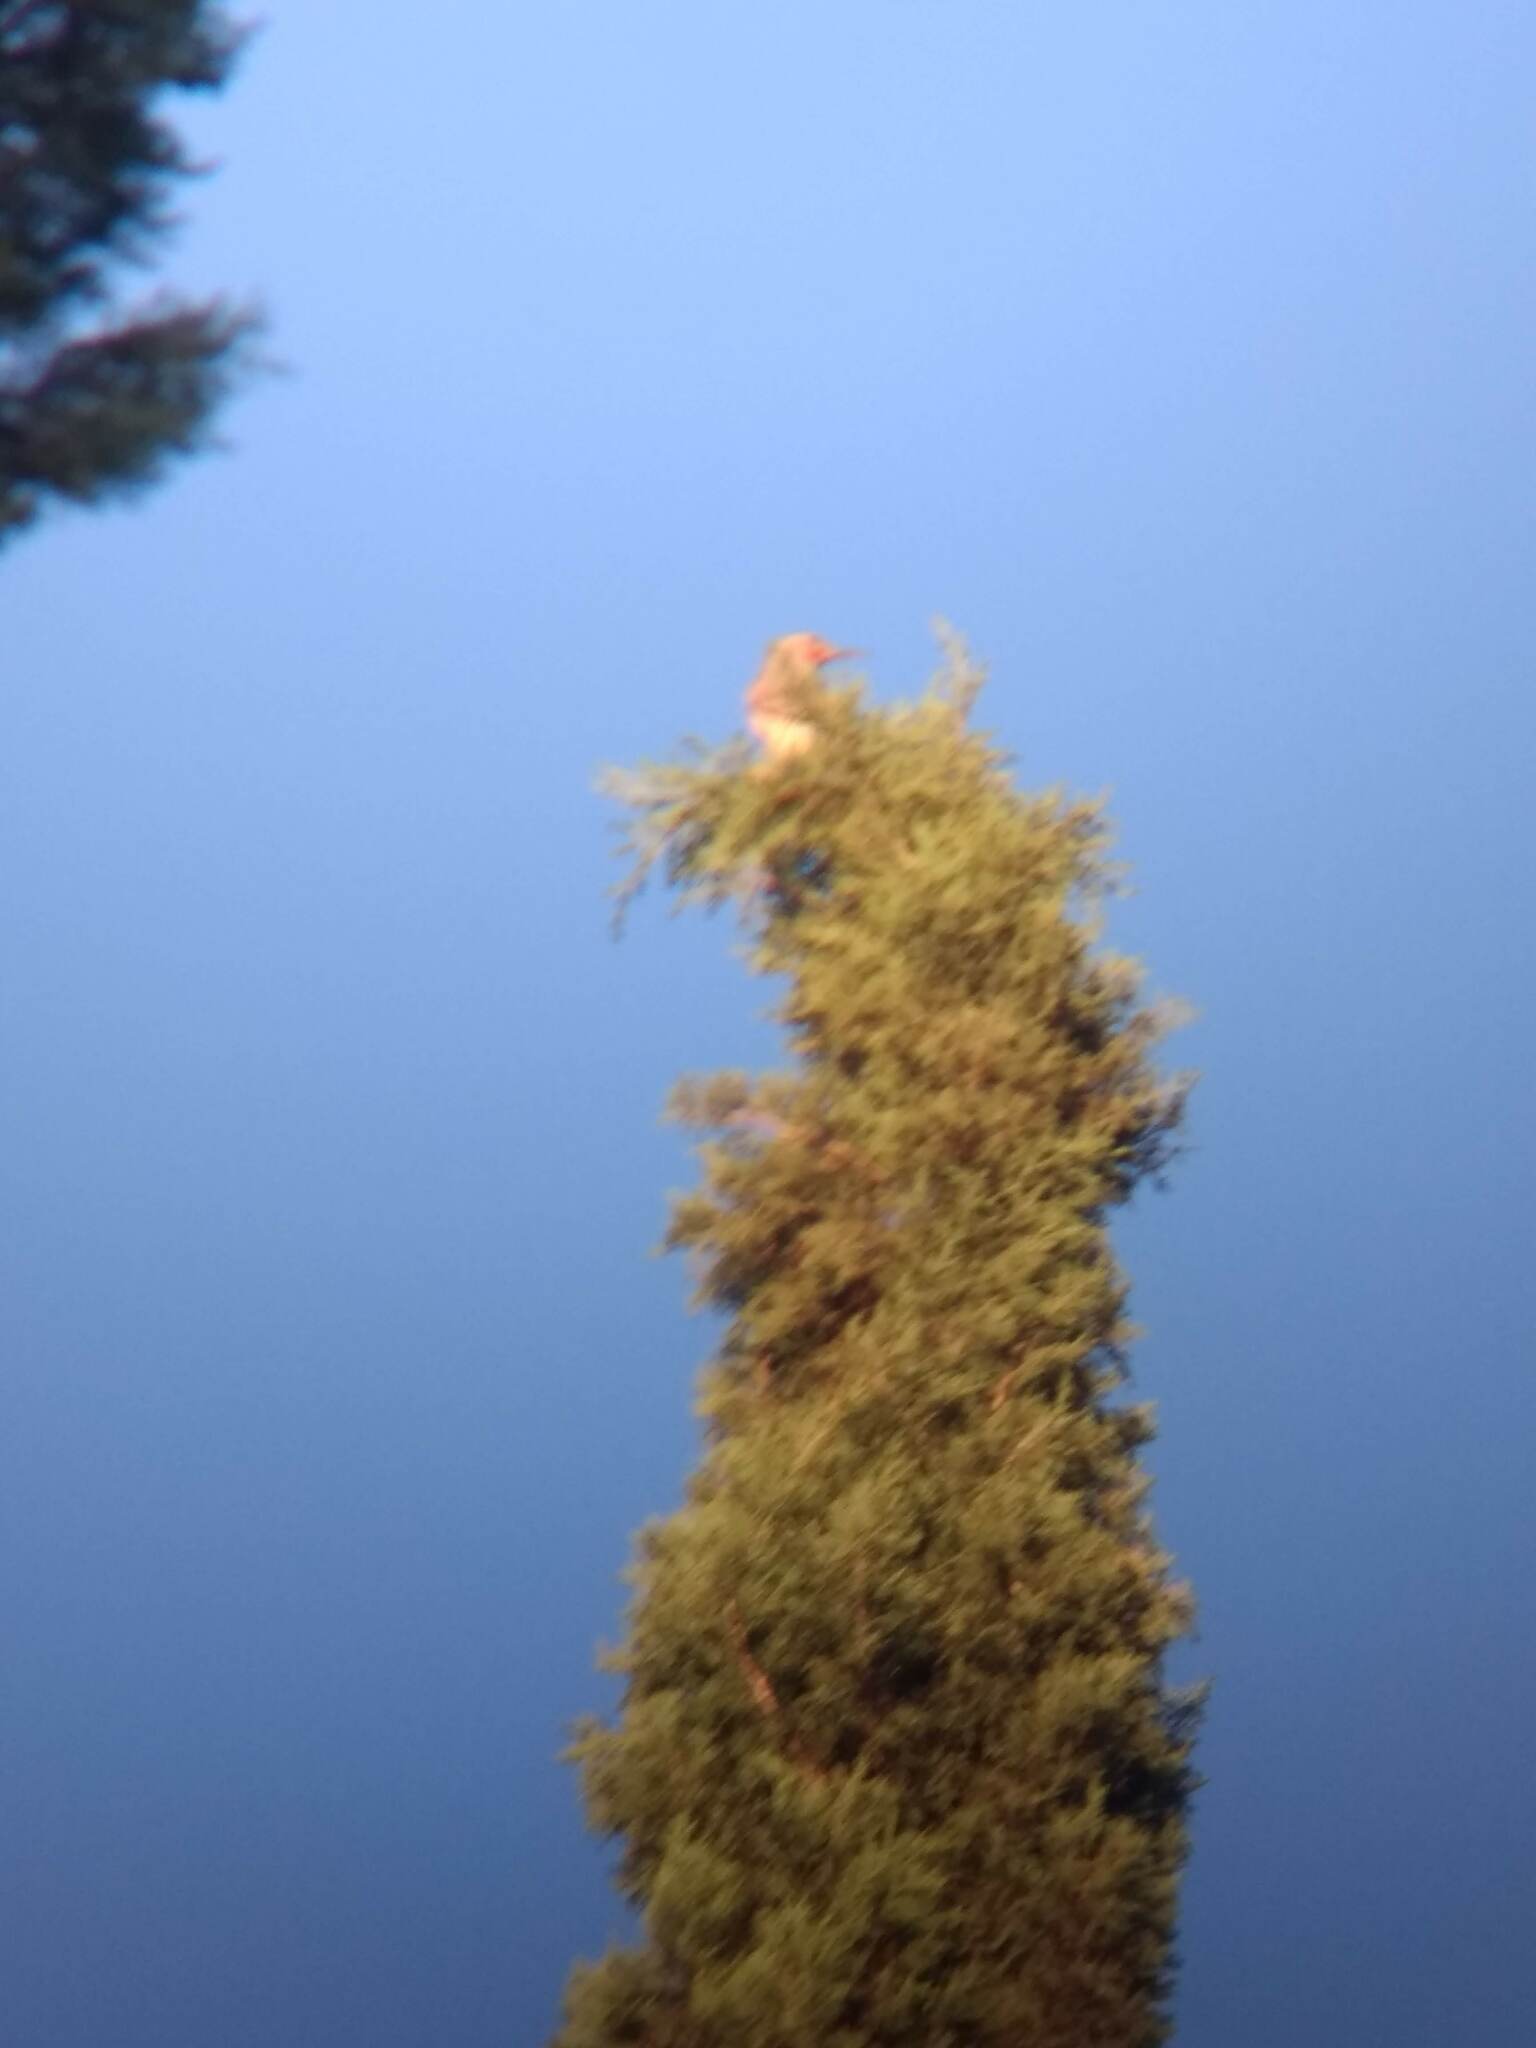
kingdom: Animalia
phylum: Chordata
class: Aves
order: Piciformes
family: Picidae
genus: Colaptes
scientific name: Colaptes auratus
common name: Northern flicker
